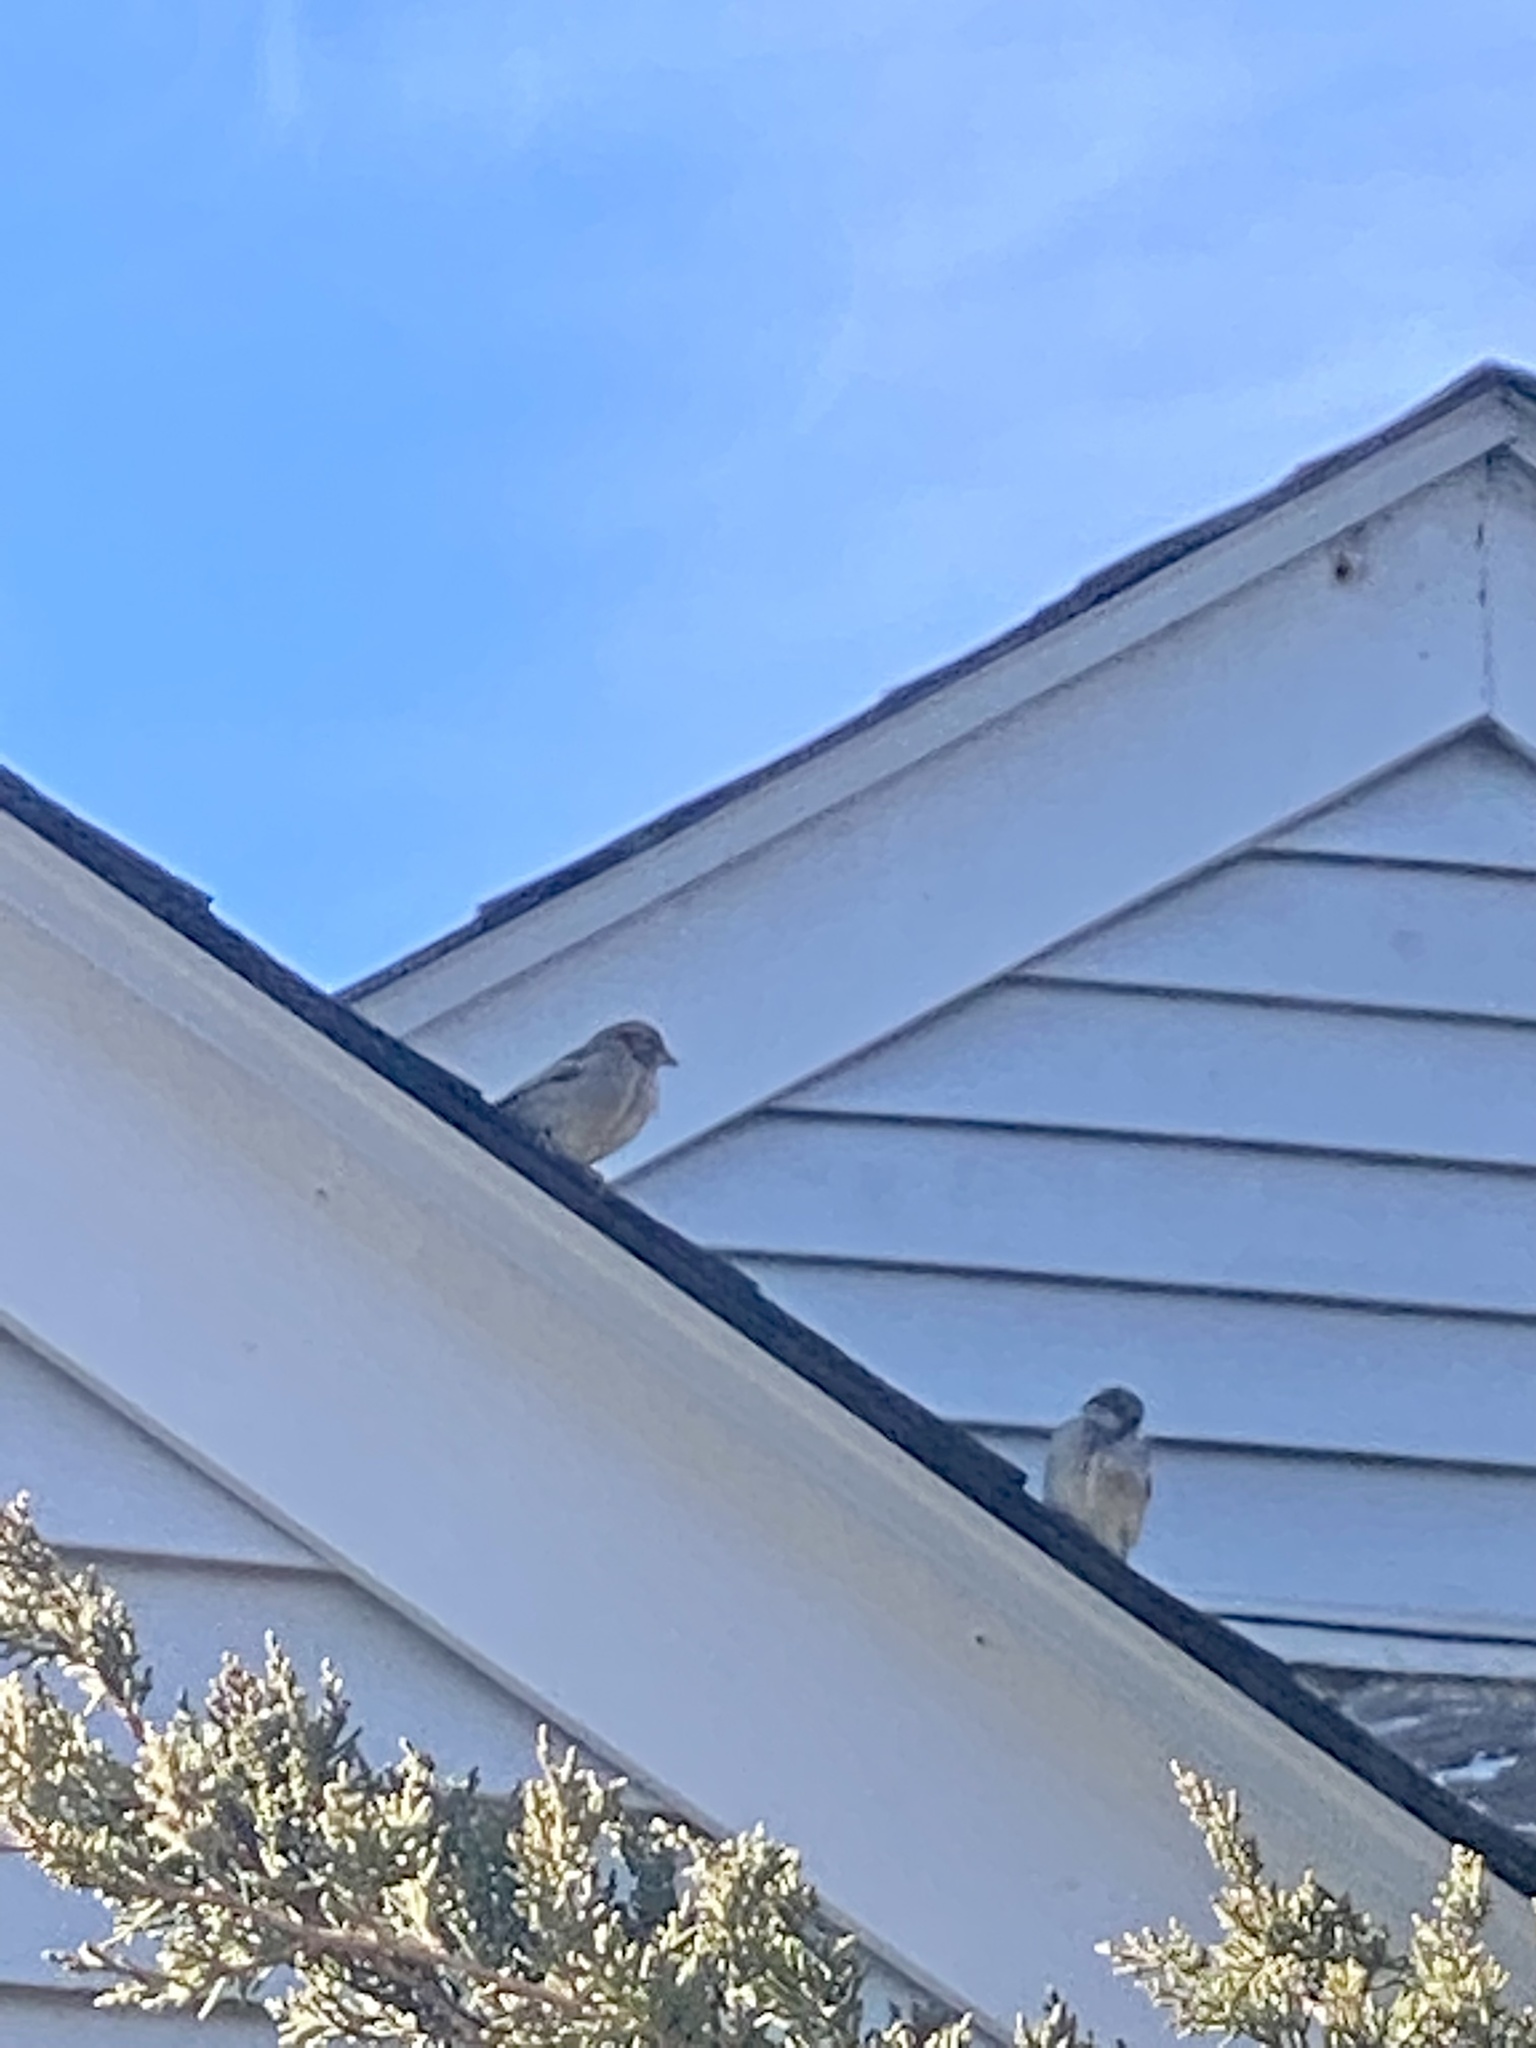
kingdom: Animalia
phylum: Chordata
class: Aves
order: Passeriformes
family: Passeridae
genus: Passer
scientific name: Passer domesticus
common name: House sparrow
